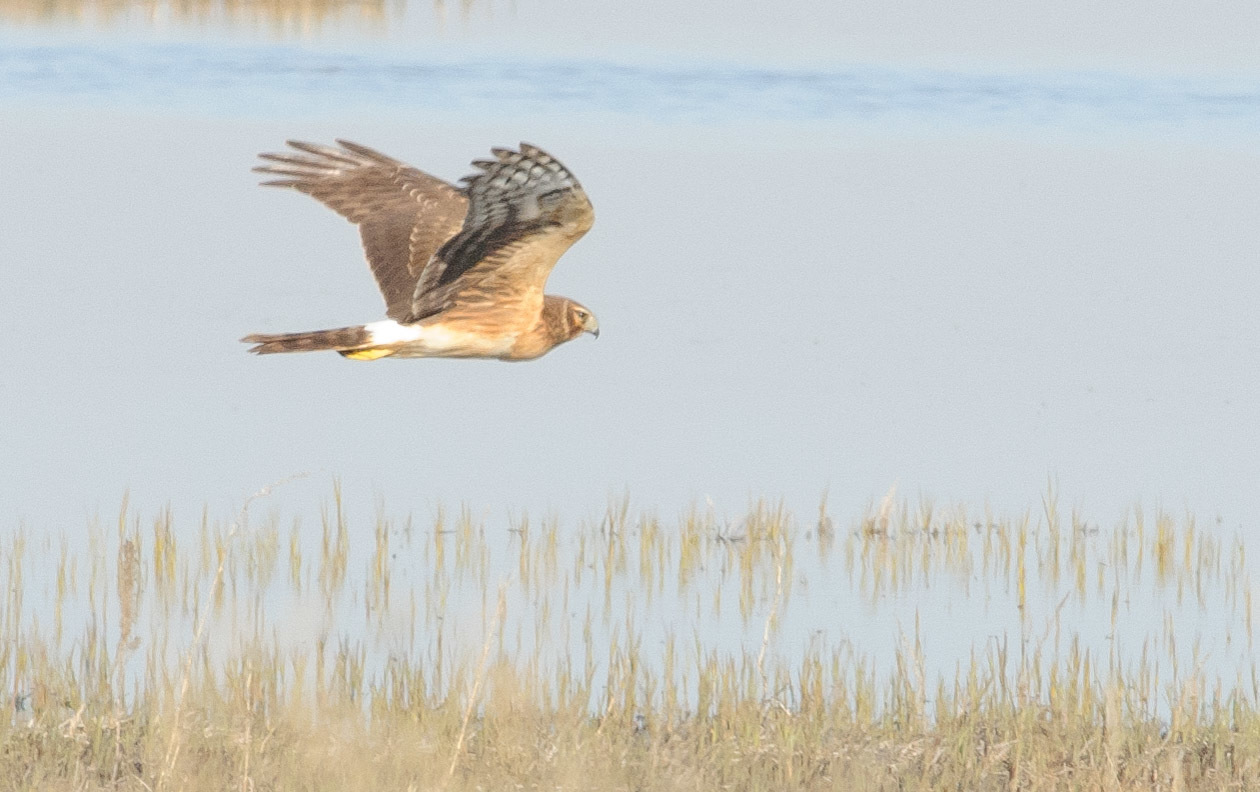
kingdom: Animalia
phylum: Chordata
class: Aves
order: Accipitriformes
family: Accipitridae
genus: Circus
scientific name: Circus cyaneus
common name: Hen harrier
